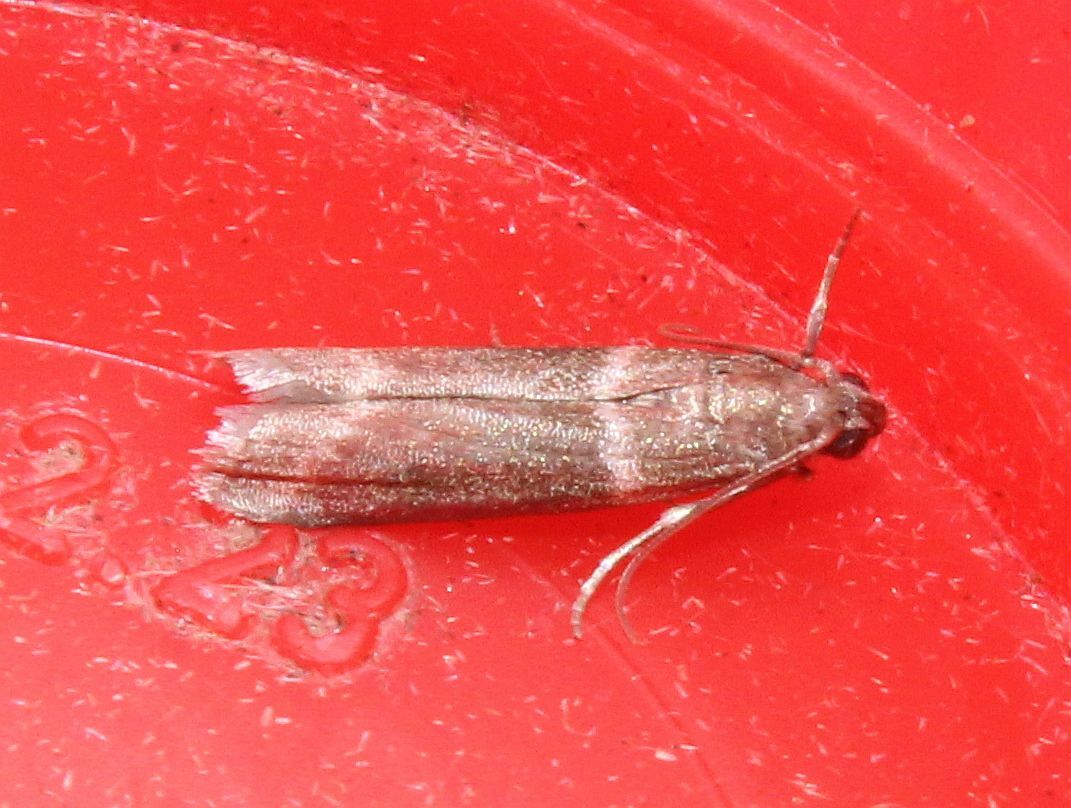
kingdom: Animalia
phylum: Arthropoda
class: Insecta
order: Lepidoptera
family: Pyralidae
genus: Cryptoblabes
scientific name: Cryptoblabes bistriga
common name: Double-striped knot-horn
